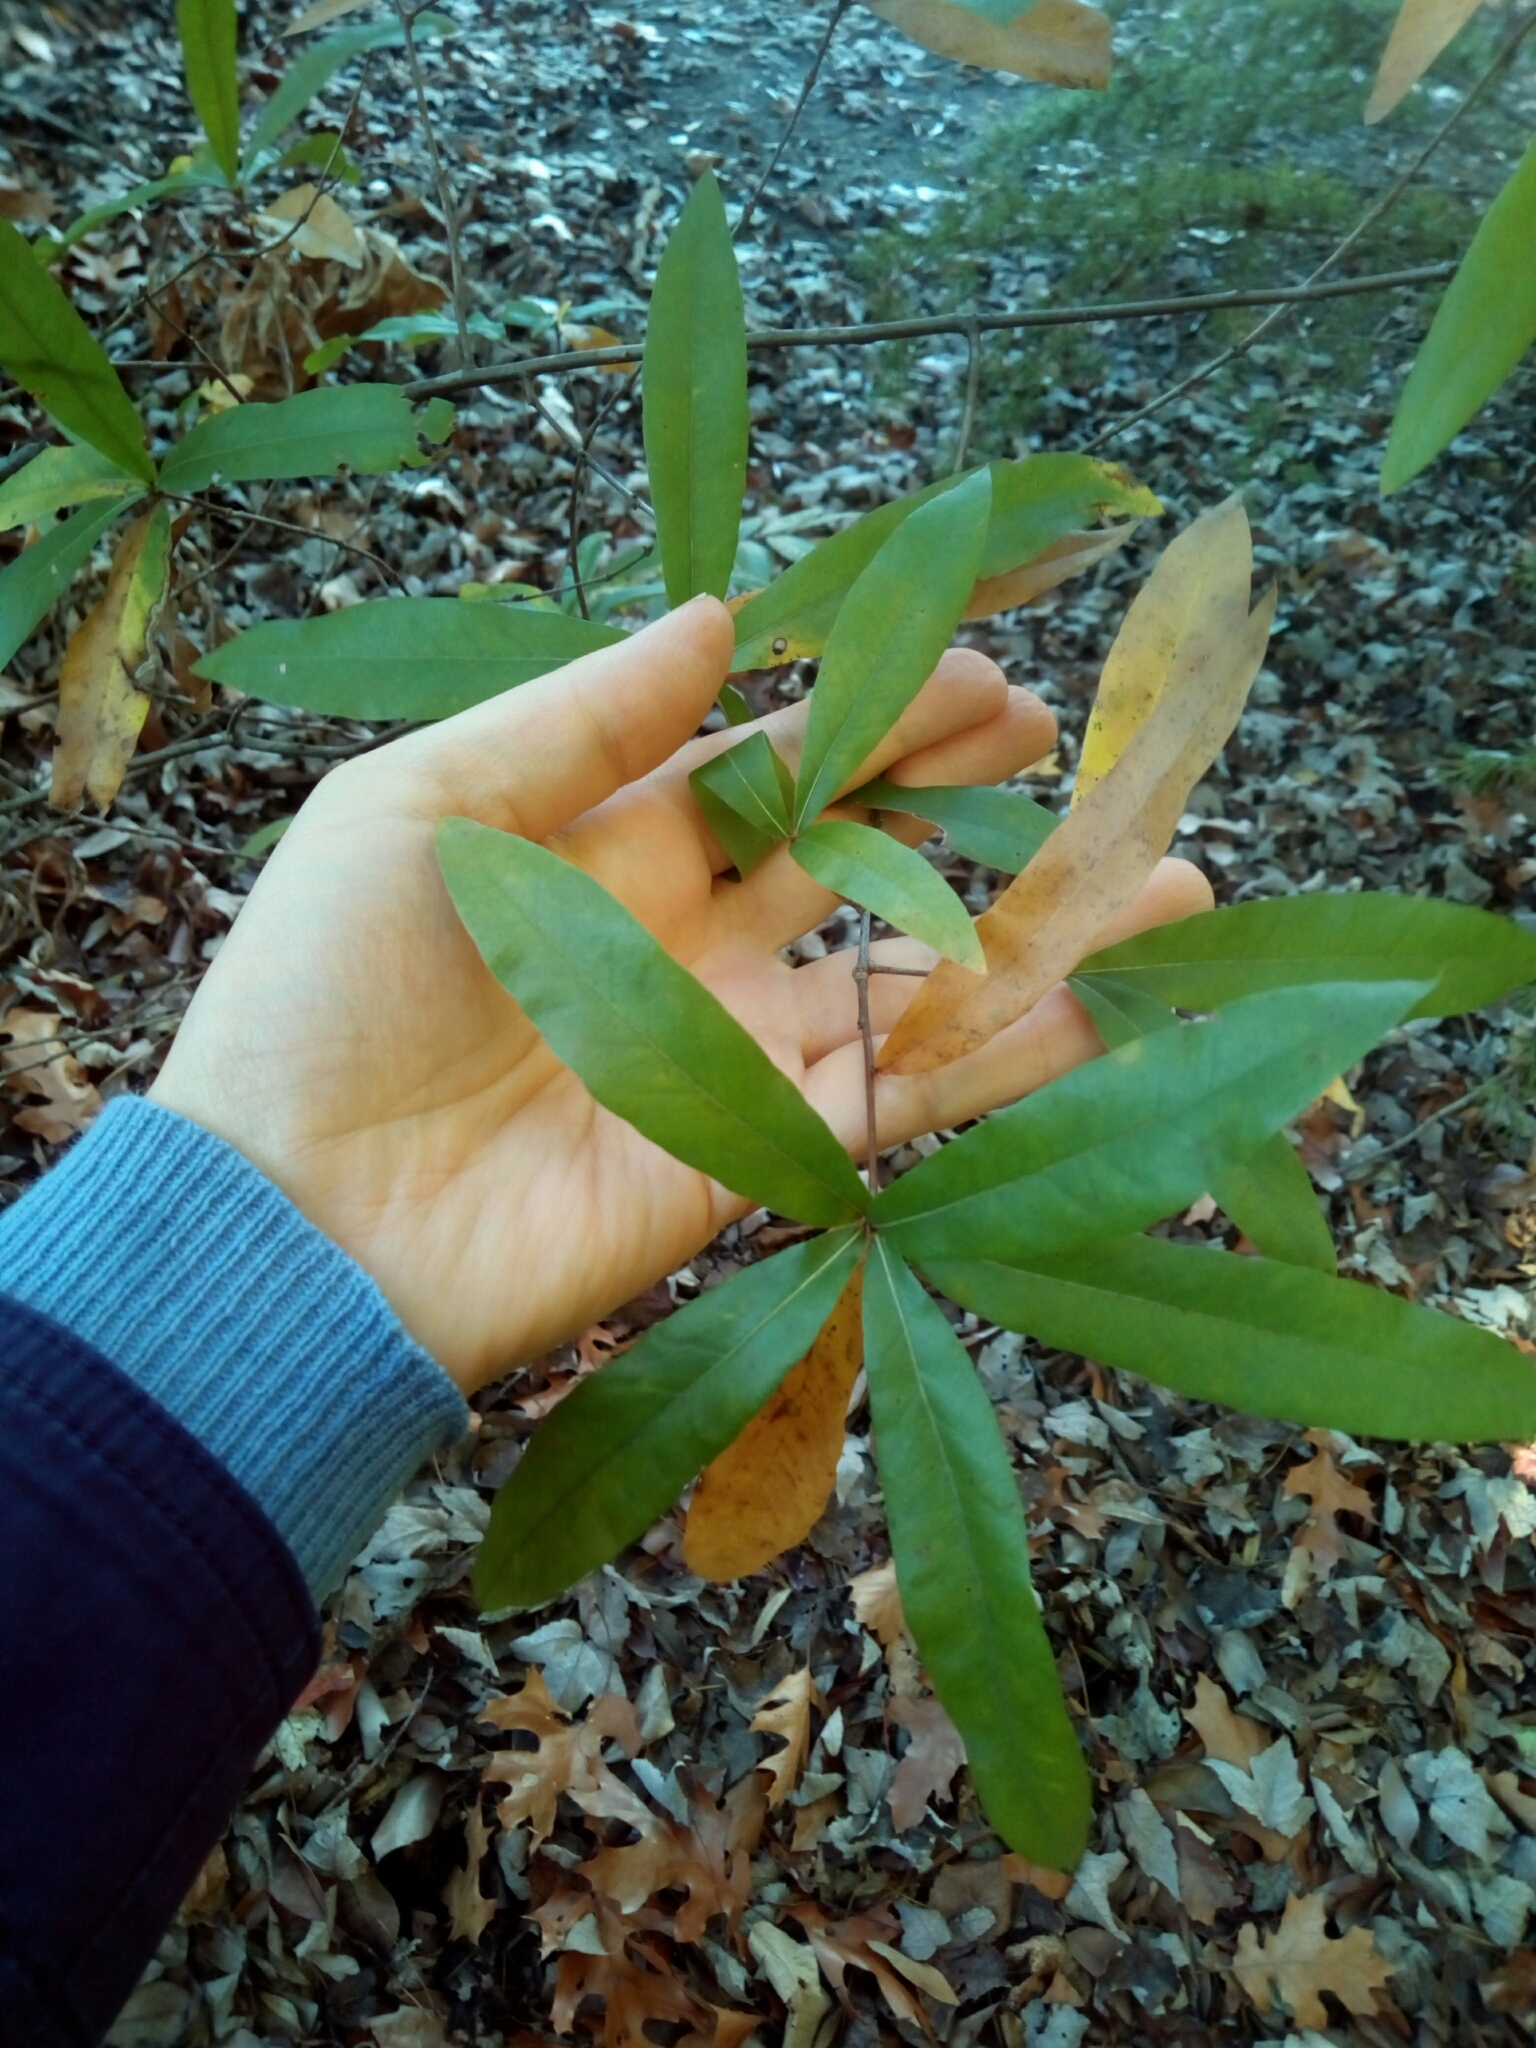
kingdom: Plantae
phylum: Tracheophyta
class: Magnoliopsida
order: Fagales
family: Fagaceae
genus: Quercus
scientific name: Quercus phellos
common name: Willow oak
